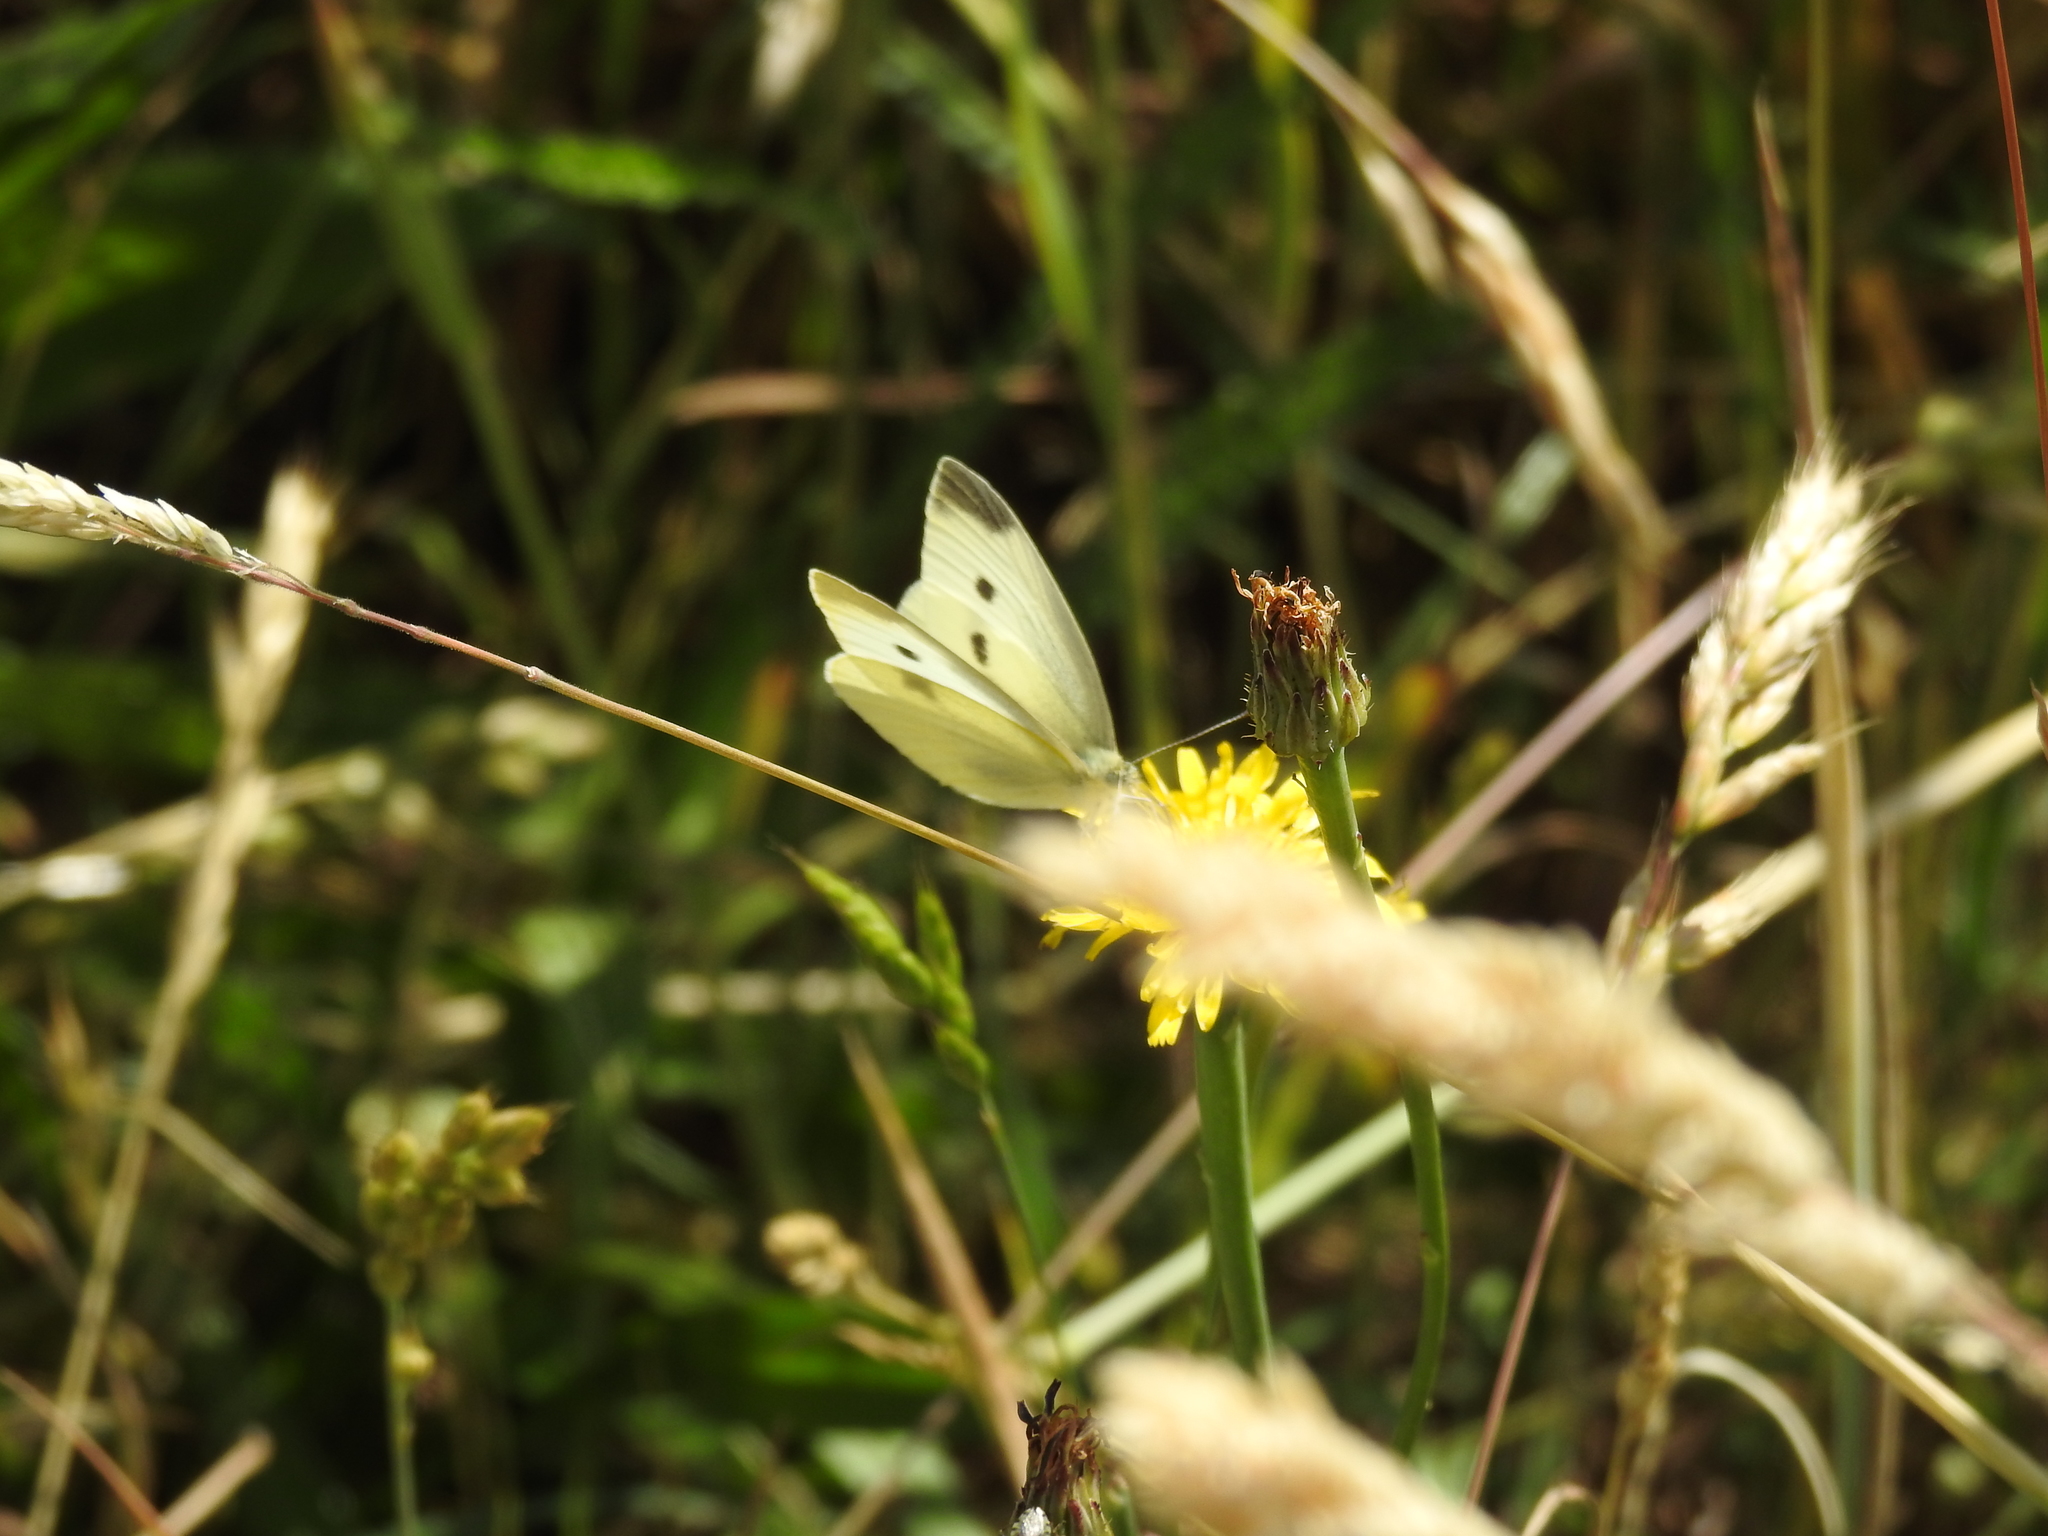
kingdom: Animalia
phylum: Arthropoda
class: Insecta
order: Lepidoptera
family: Pieridae
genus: Pieris
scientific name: Pieris rapae
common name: Small white
